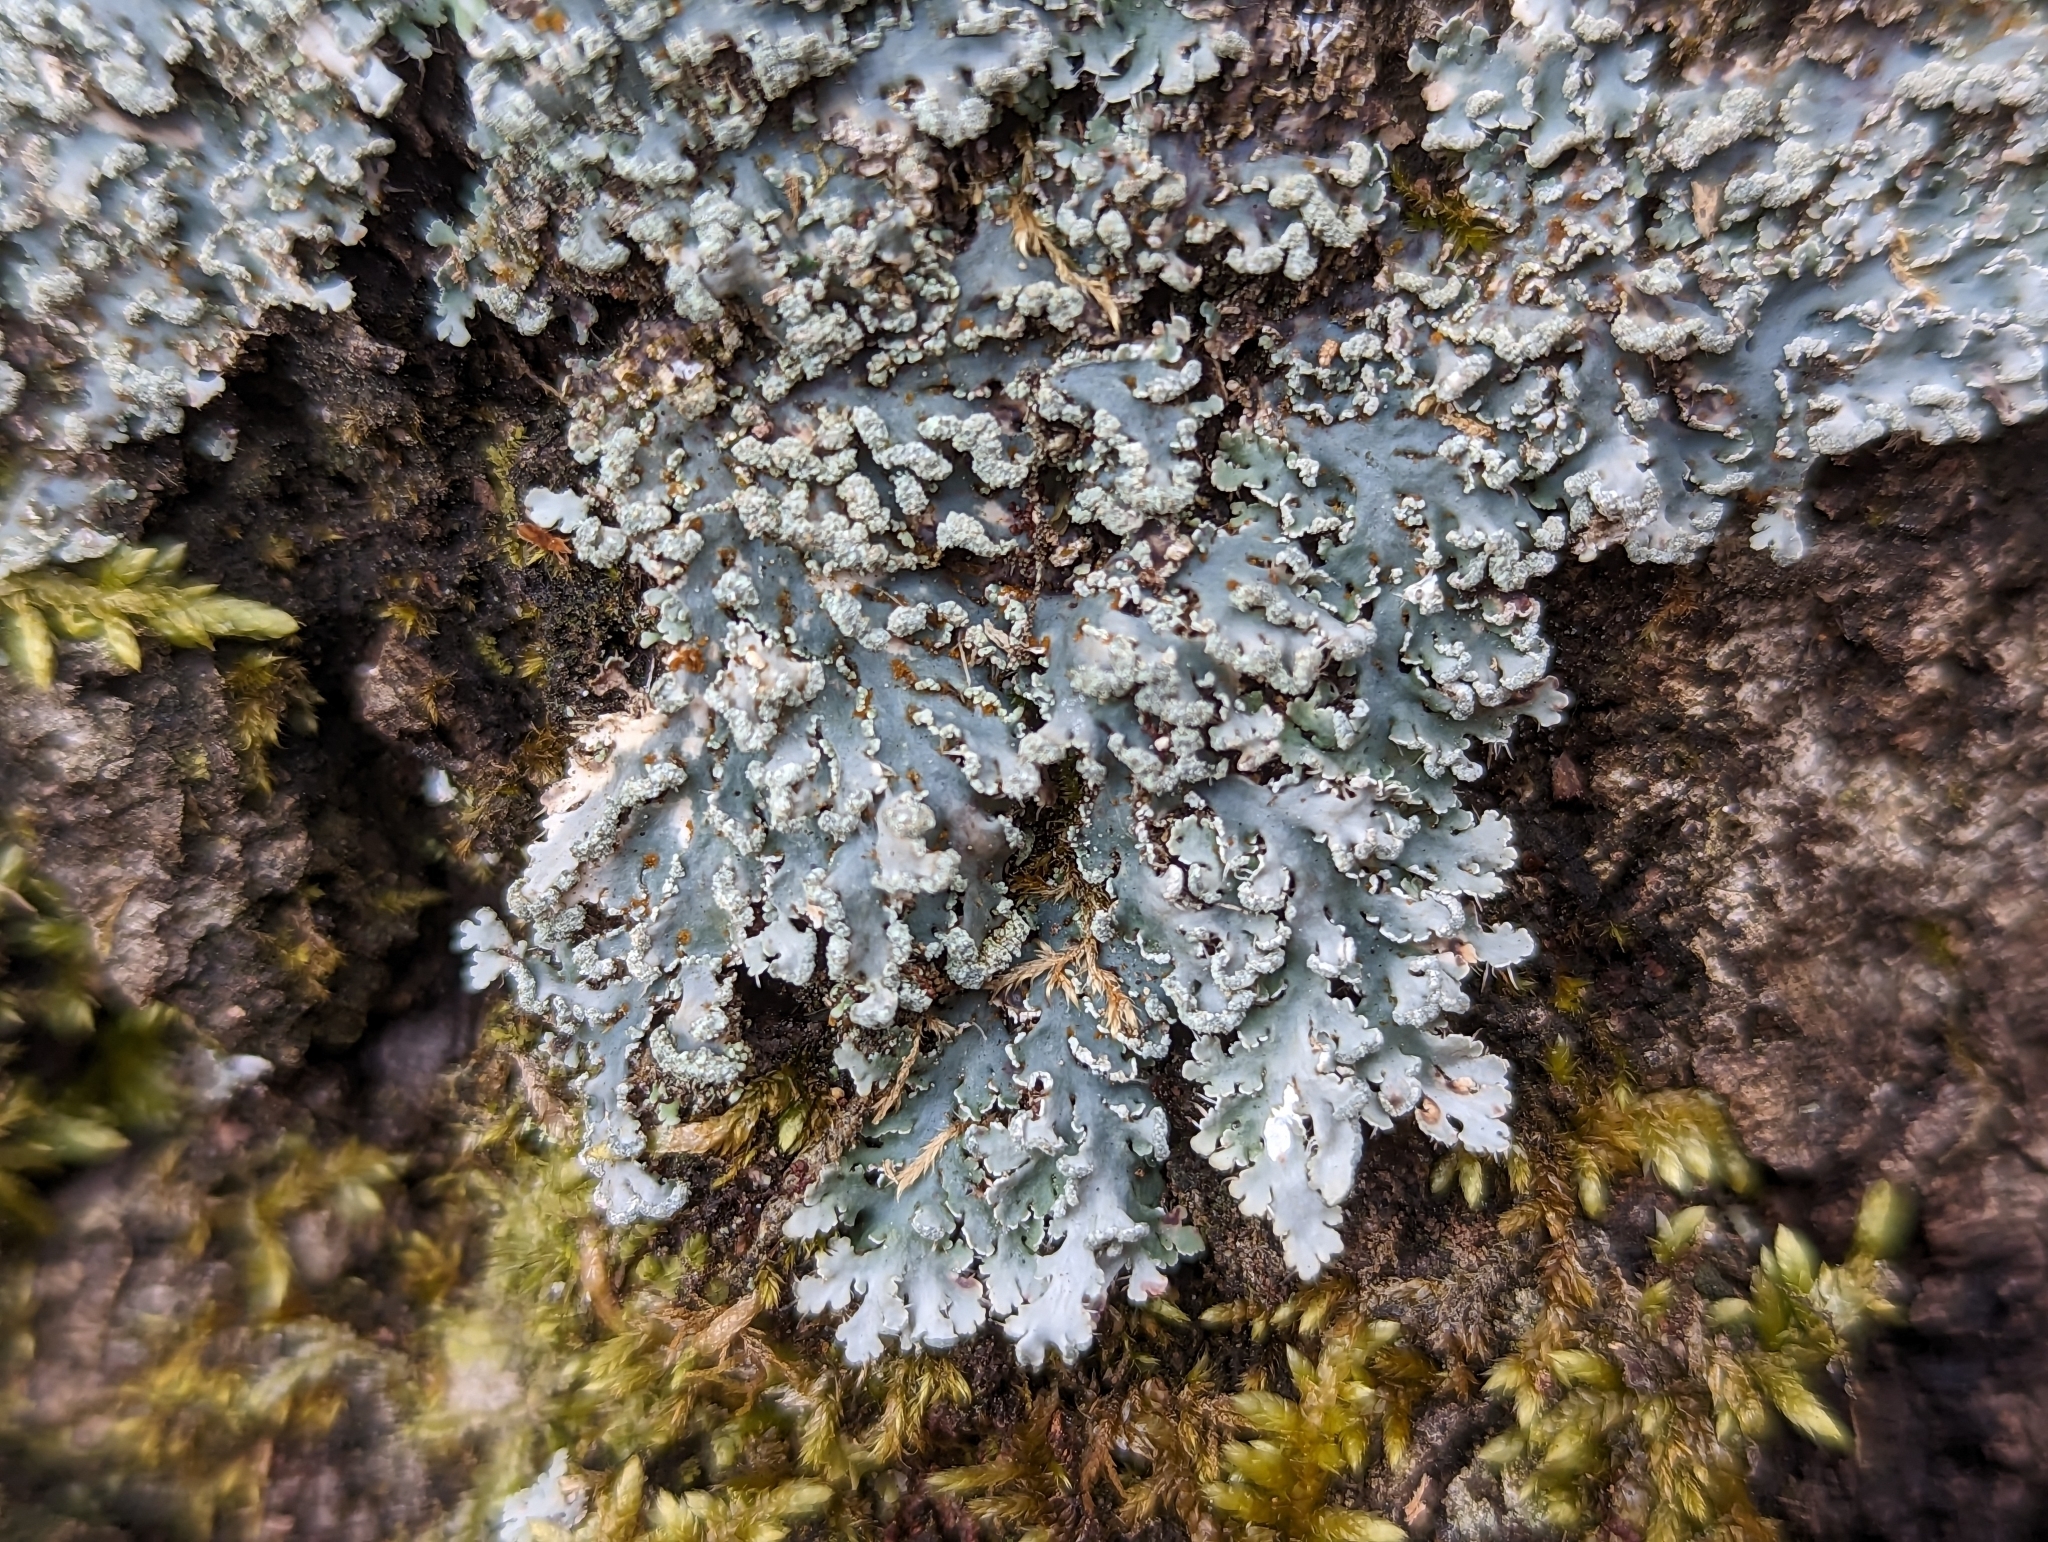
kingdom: Fungi
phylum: Ascomycota
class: Lecanoromycetes
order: Caliciales
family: Physciaceae
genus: Heterodermia
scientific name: Heterodermia speciosa
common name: Powdered fringe lichen
